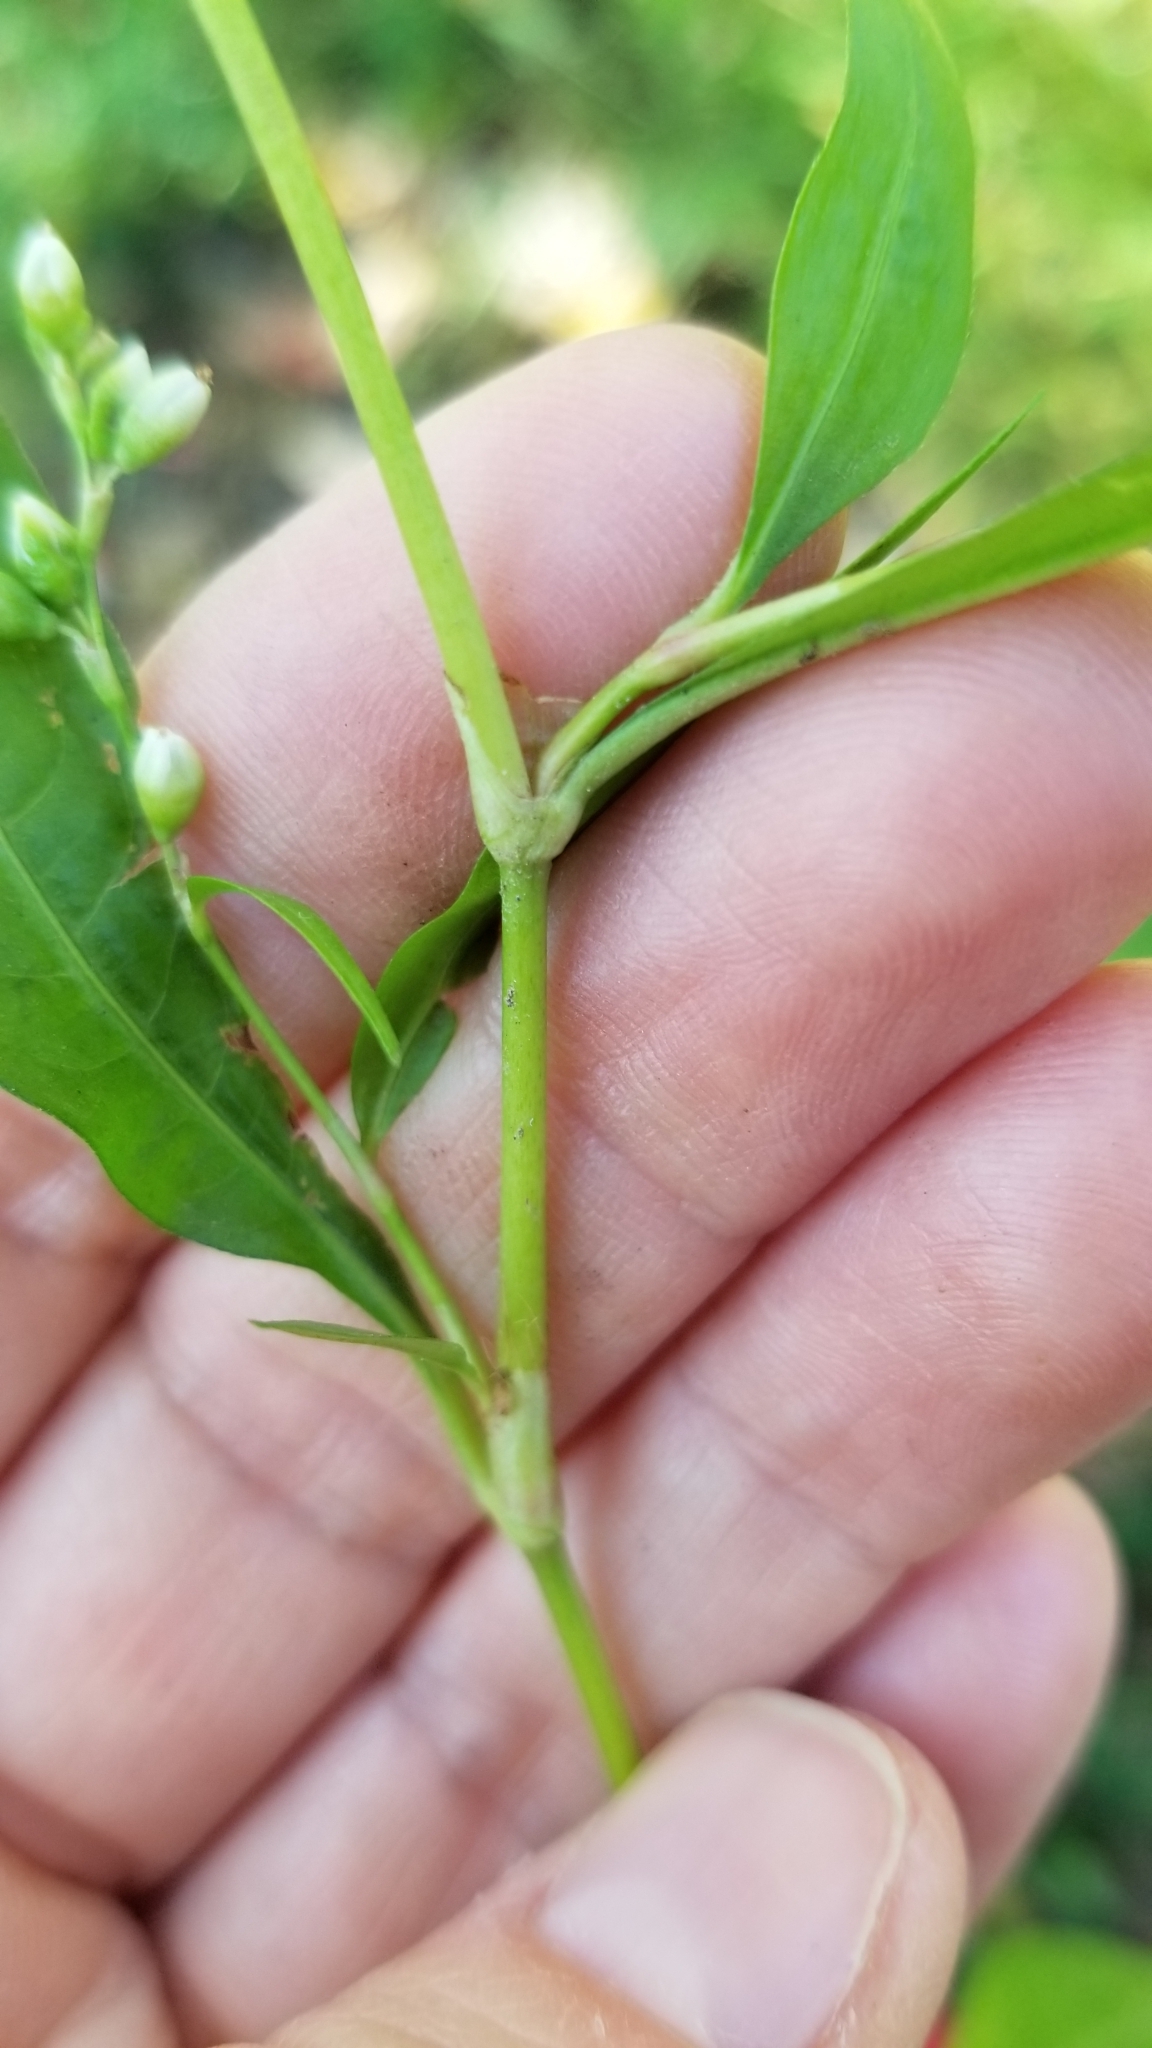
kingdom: Plantae
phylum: Tracheophyta
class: Magnoliopsida
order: Caryophyllales
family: Polygonaceae
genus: Persicaria
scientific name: Persicaria punctata
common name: Dotted smartweed
